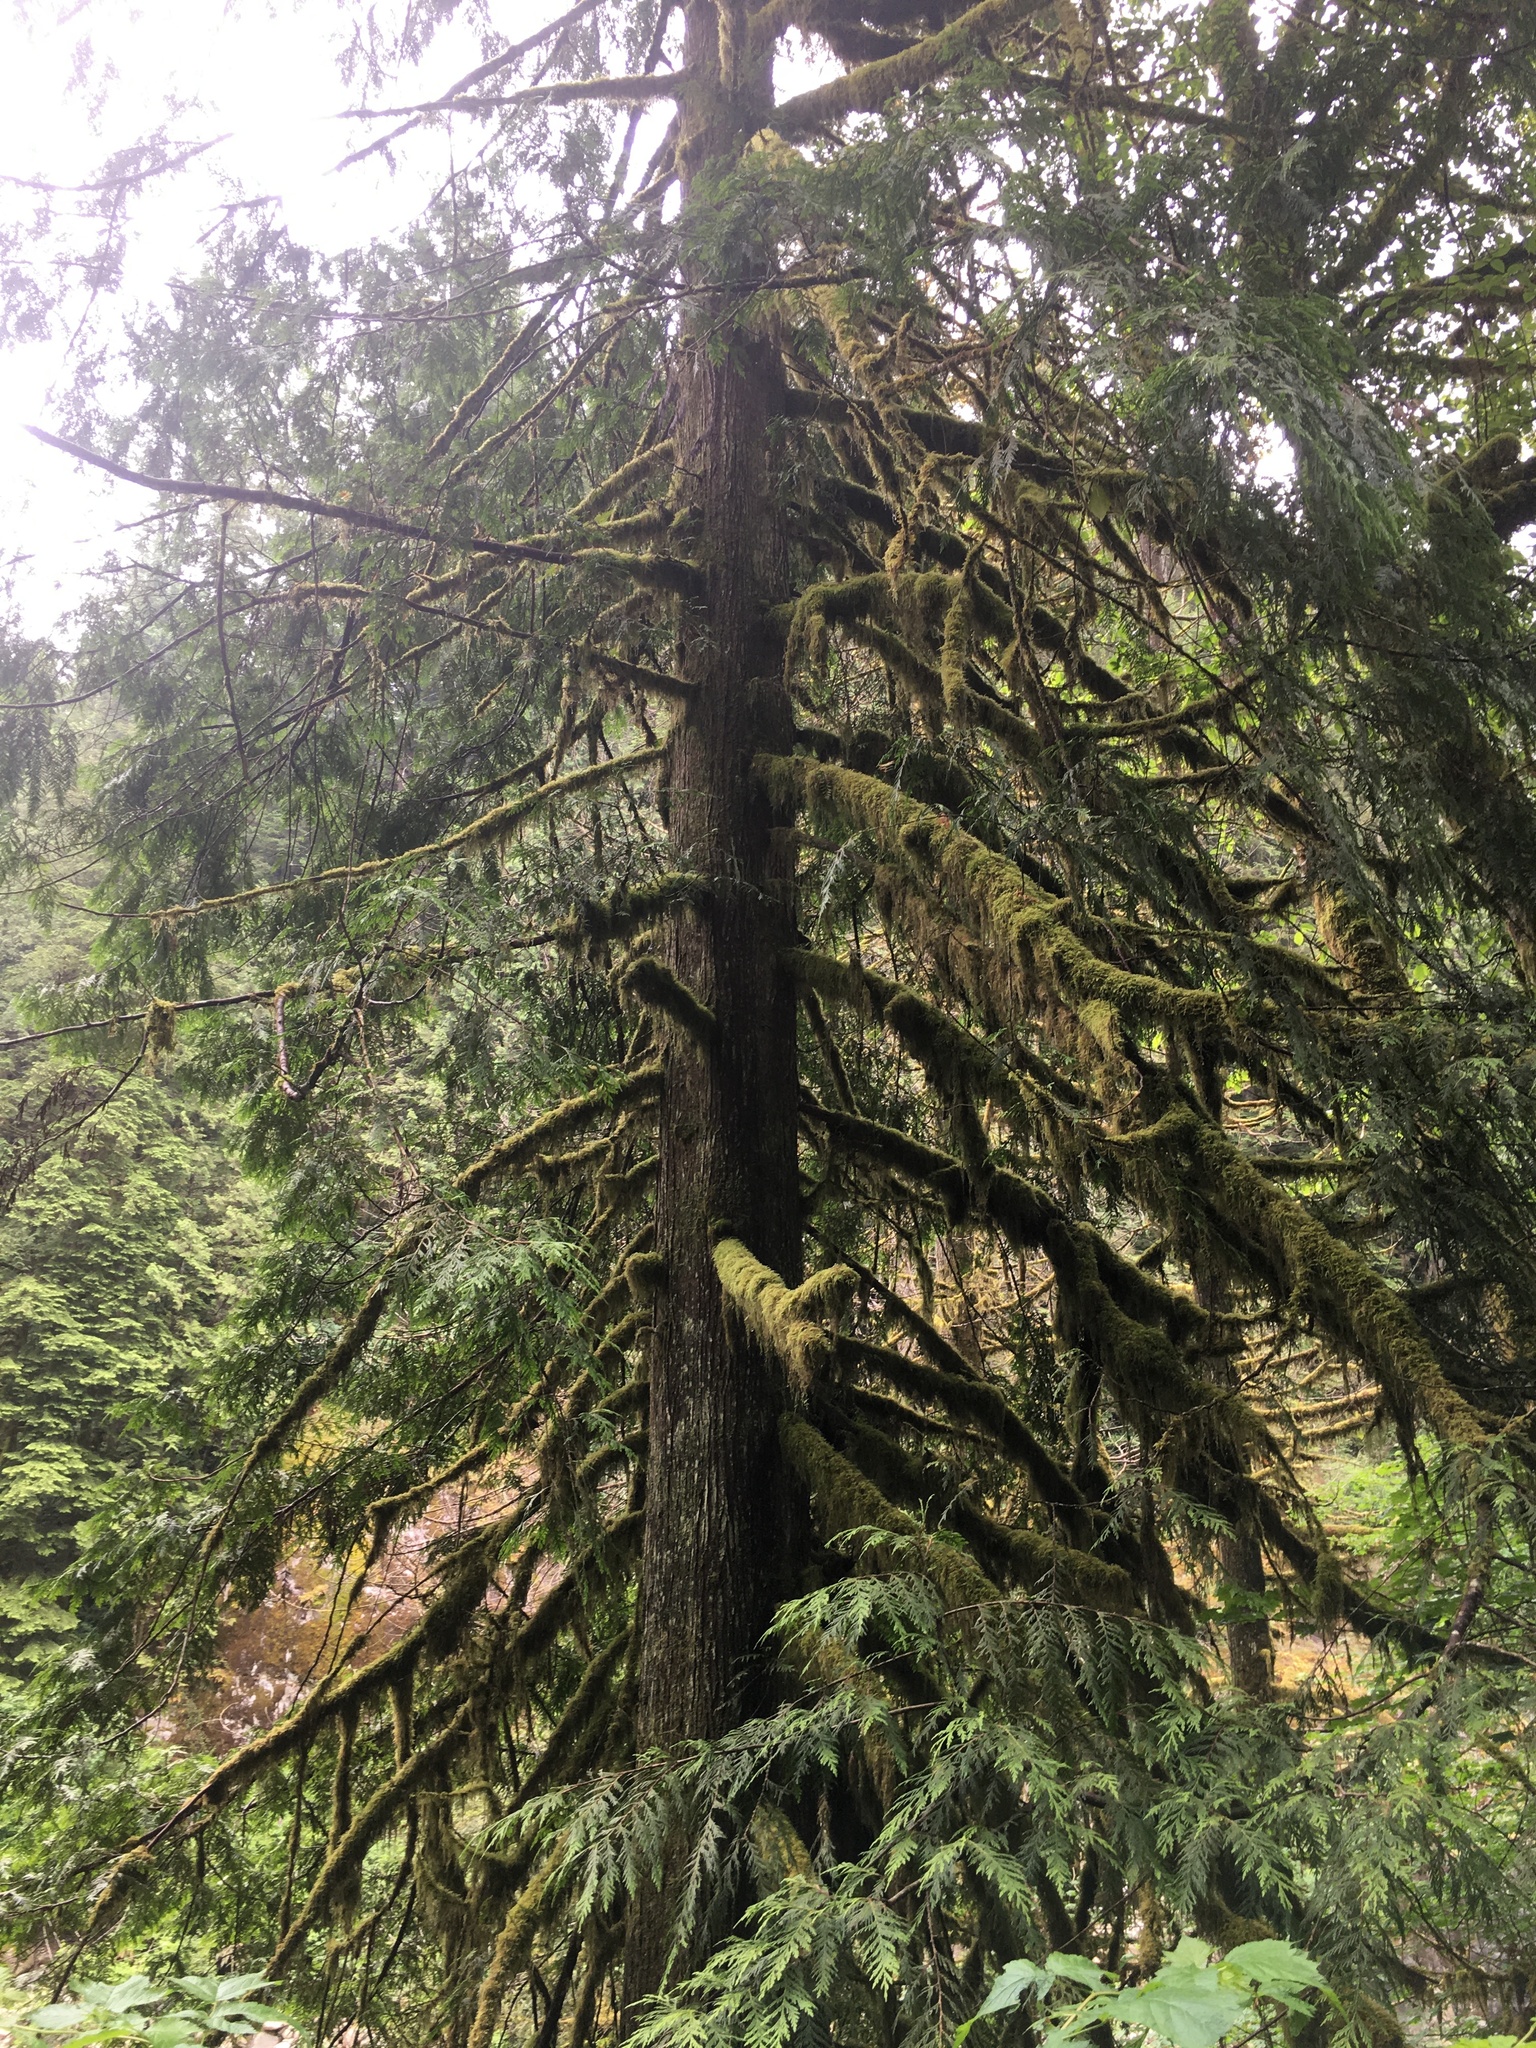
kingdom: Plantae
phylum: Tracheophyta
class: Pinopsida
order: Pinales
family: Cupressaceae
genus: Thuja
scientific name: Thuja plicata
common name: Western red-cedar
